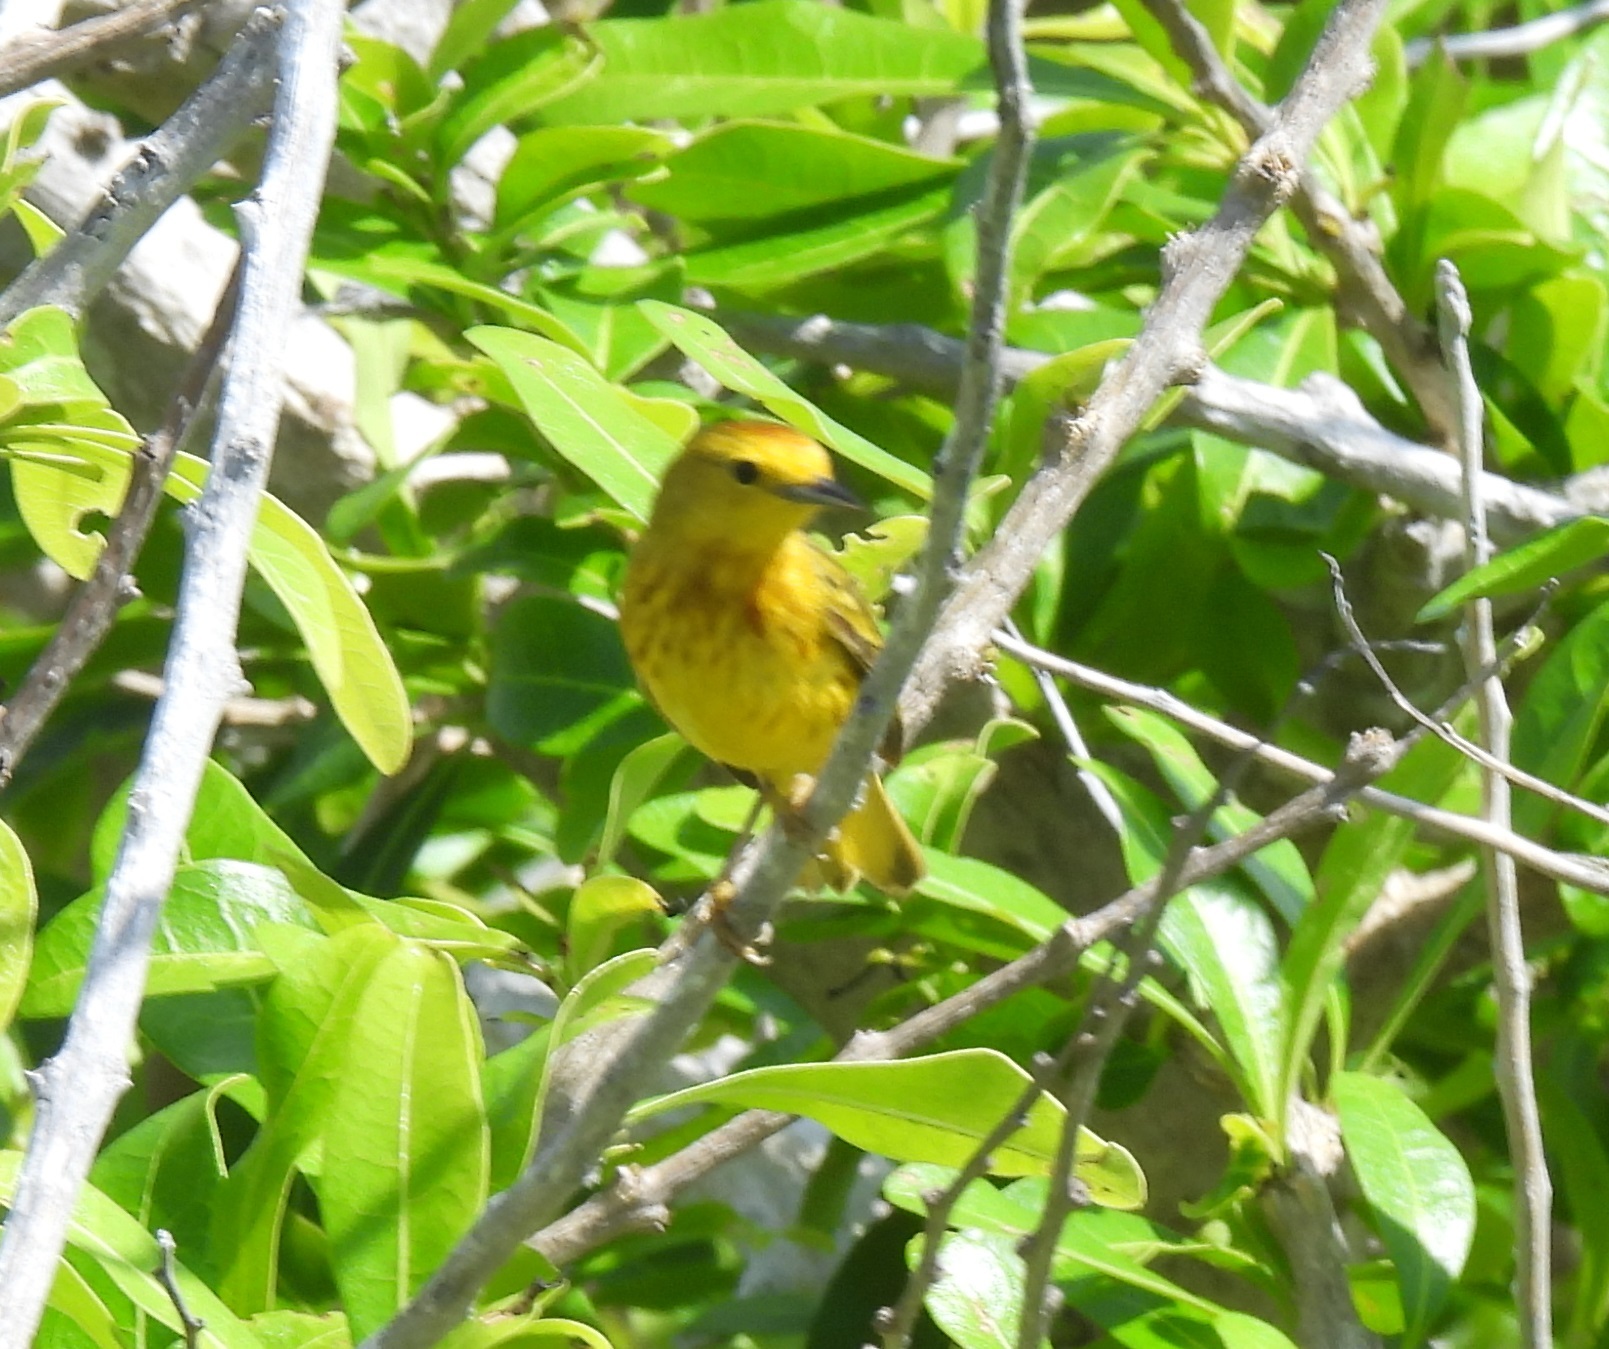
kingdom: Animalia
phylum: Chordata
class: Aves
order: Passeriformes
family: Parulidae
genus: Setophaga
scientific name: Setophaga petechia
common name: Yellow warbler
